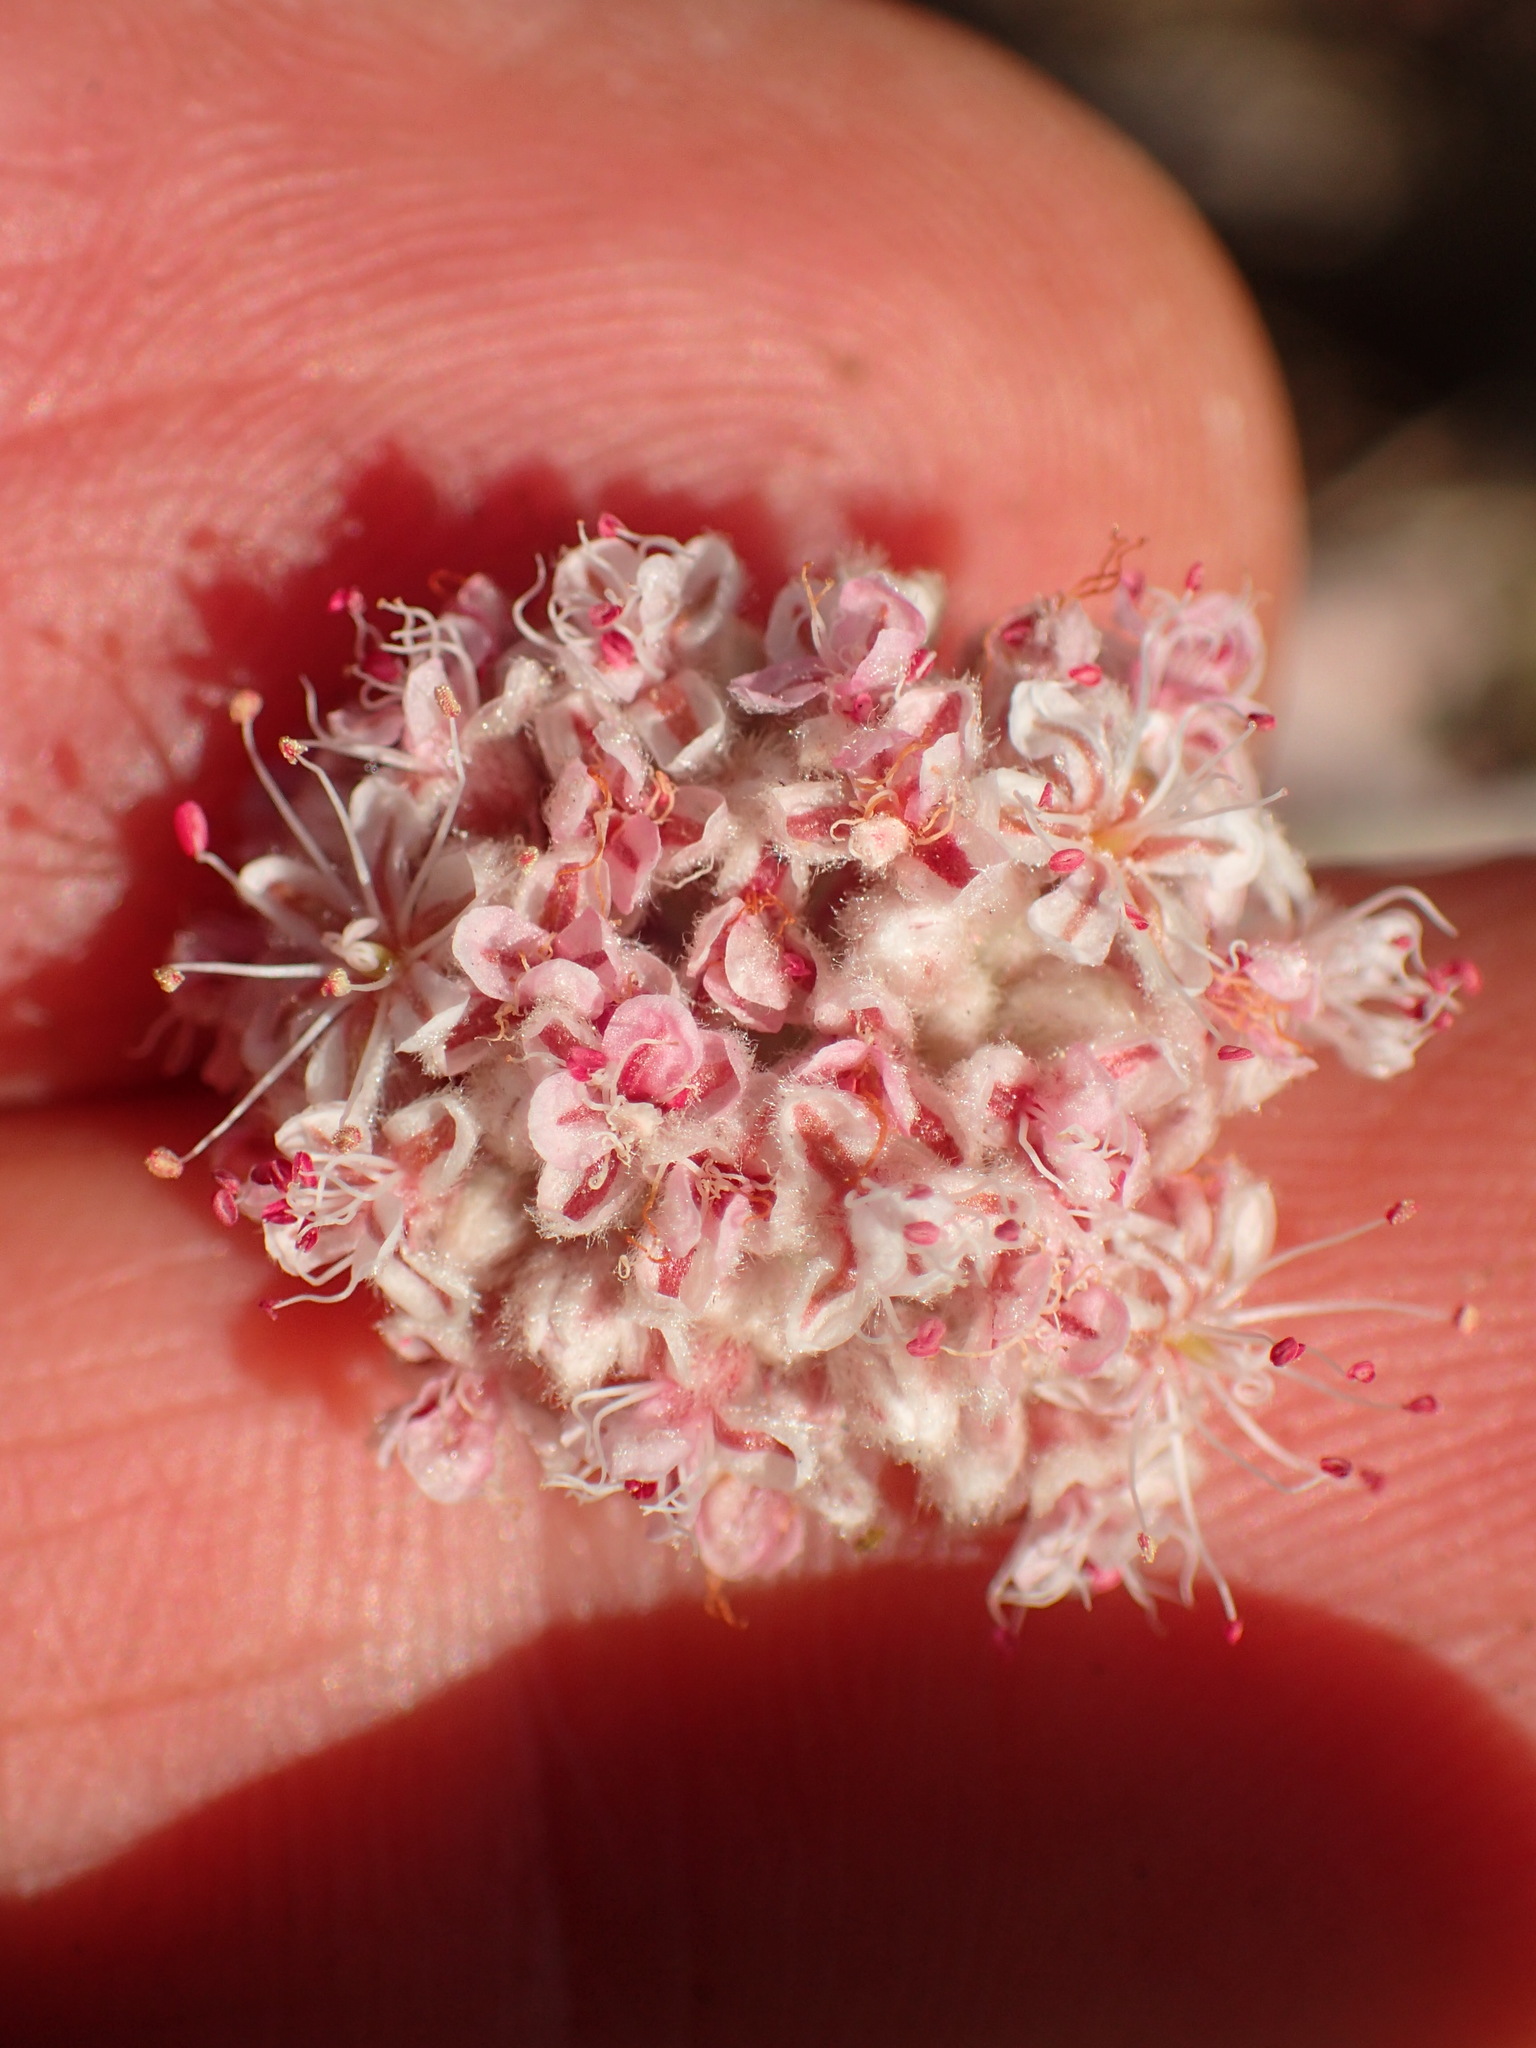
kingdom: Plantae
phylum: Tracheophyta
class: Magnoliopsida
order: Caryophyllales
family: Polygonaceae
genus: Eriogonum
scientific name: Eriogonum cinereum
